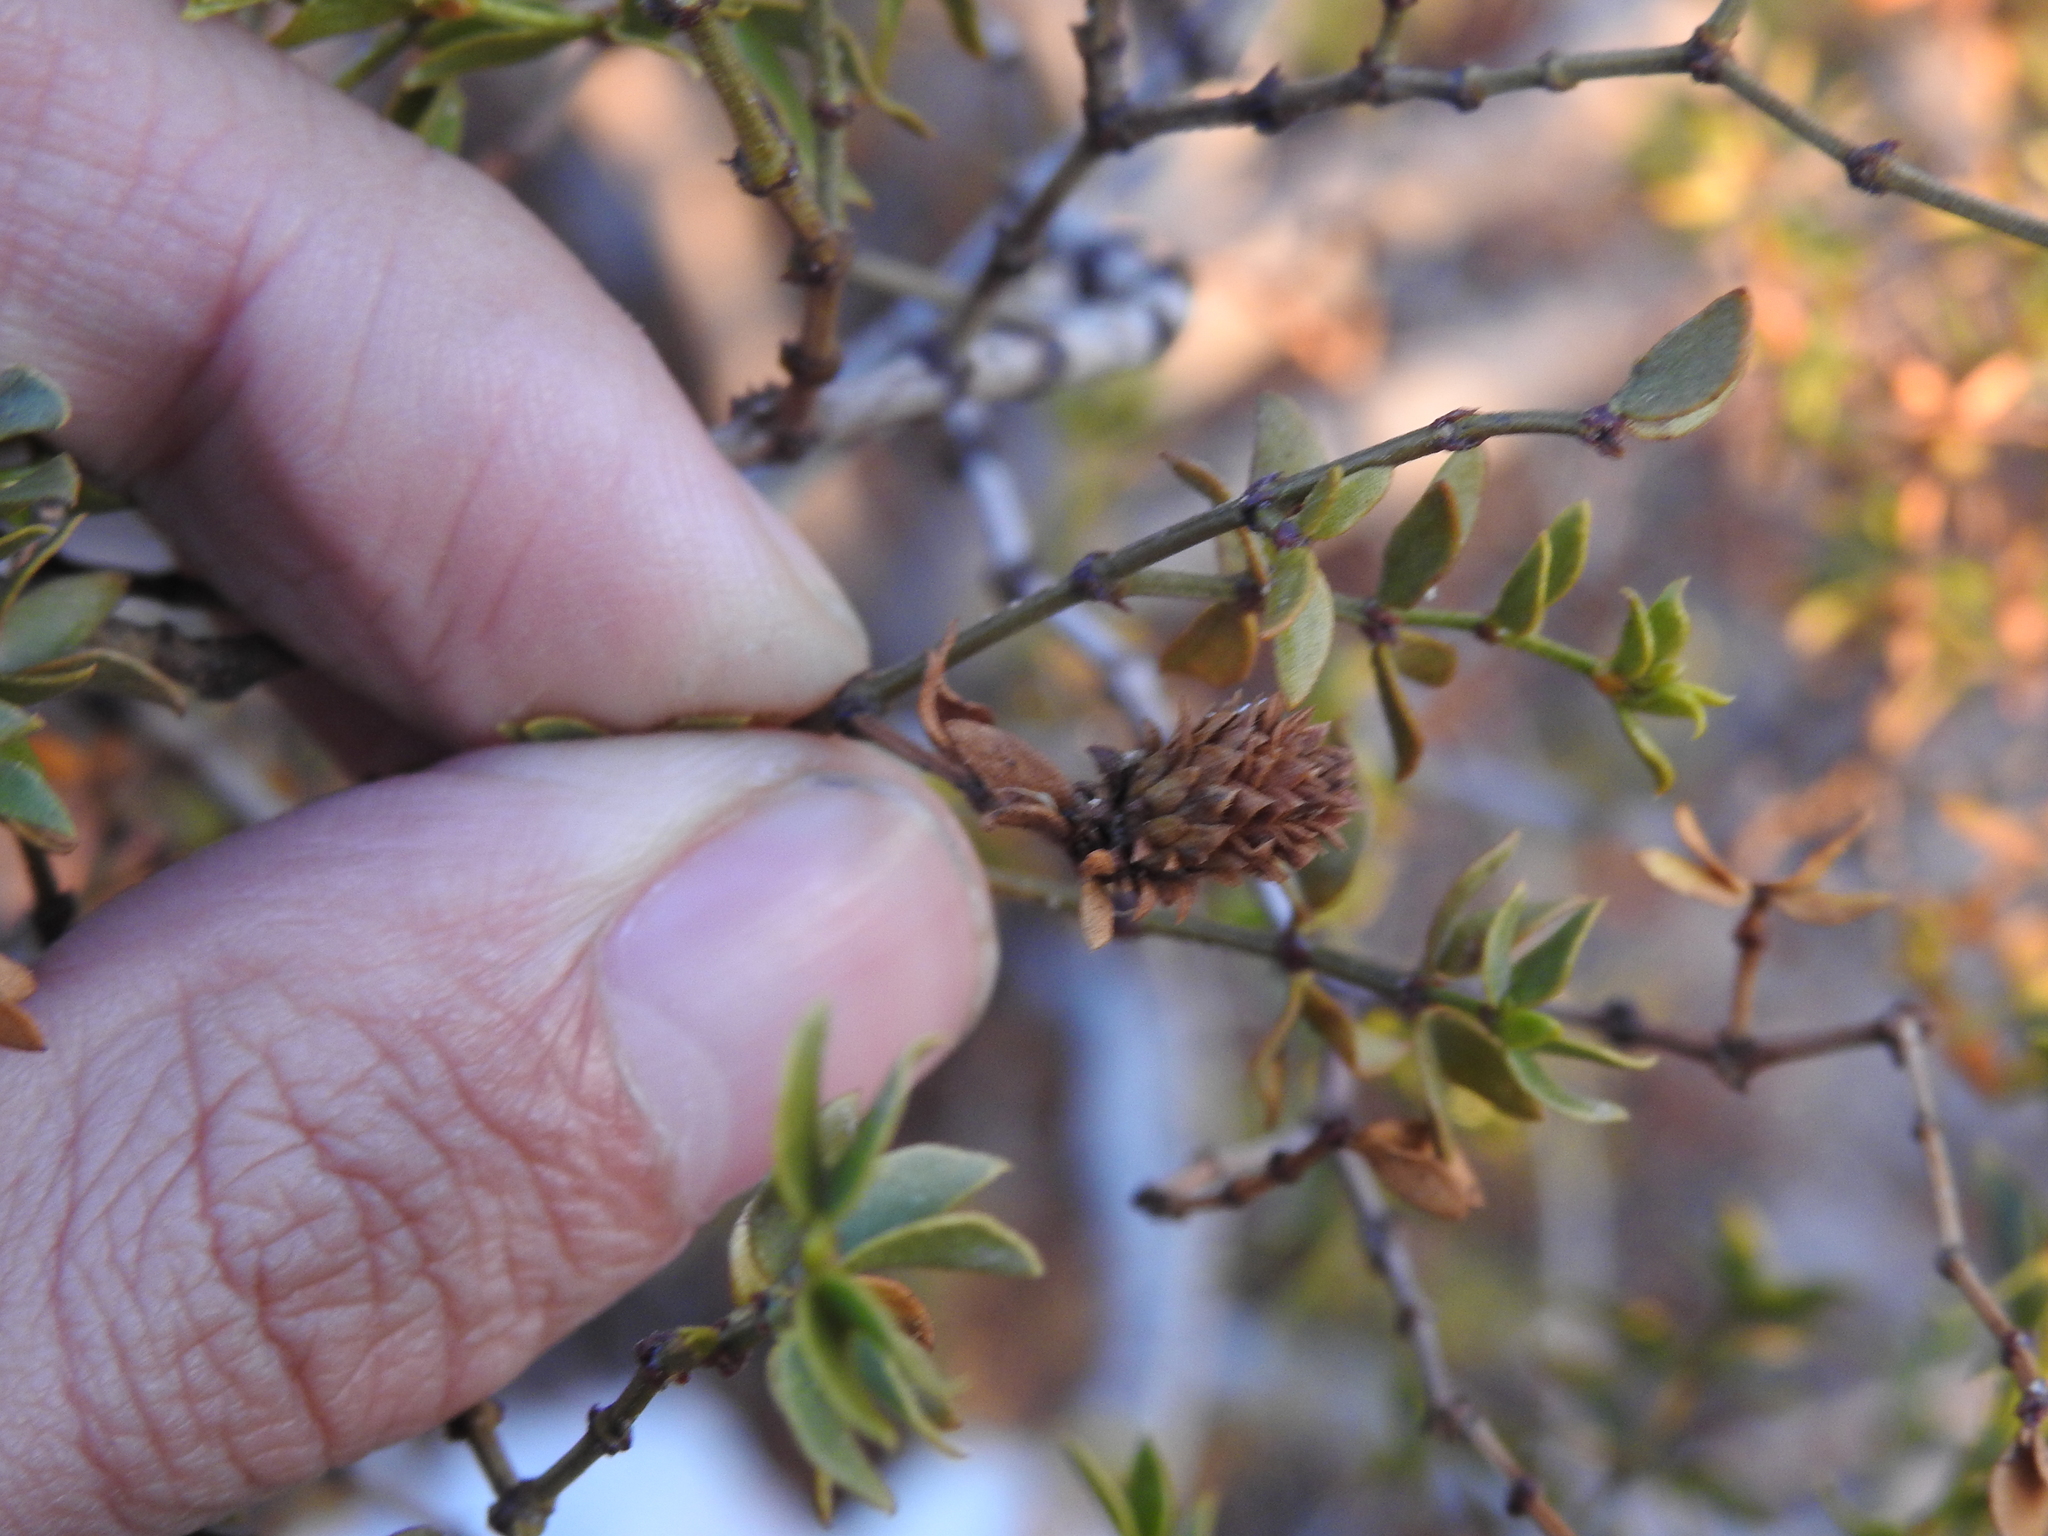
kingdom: Animalia
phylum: Arthropoda
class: Insecta
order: Diptera
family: Cecidomyiidae
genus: Asphondylia
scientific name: Asphondylia rosetta
